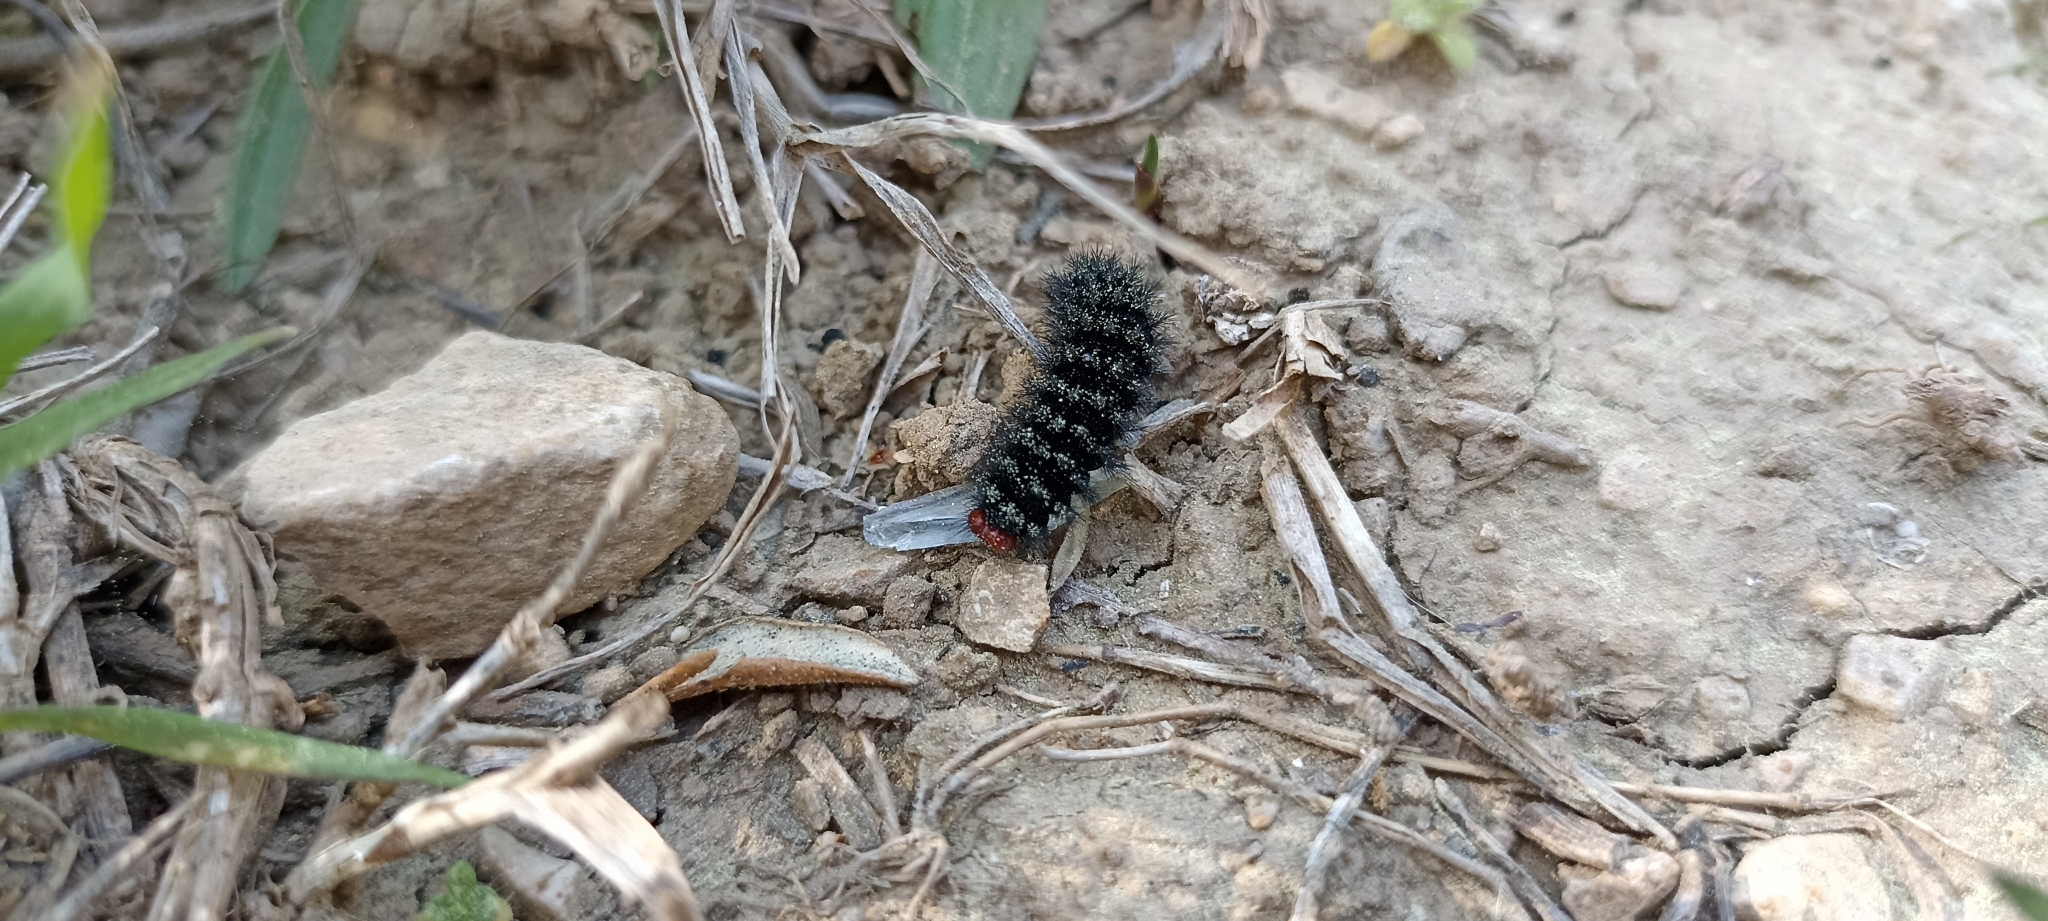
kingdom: Animalia
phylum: Arthropoda
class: Insecta
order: Lepidoptera
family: Nymphalidae
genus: Melitaea
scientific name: Melitaea cinxia
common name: Glanville fritillary
